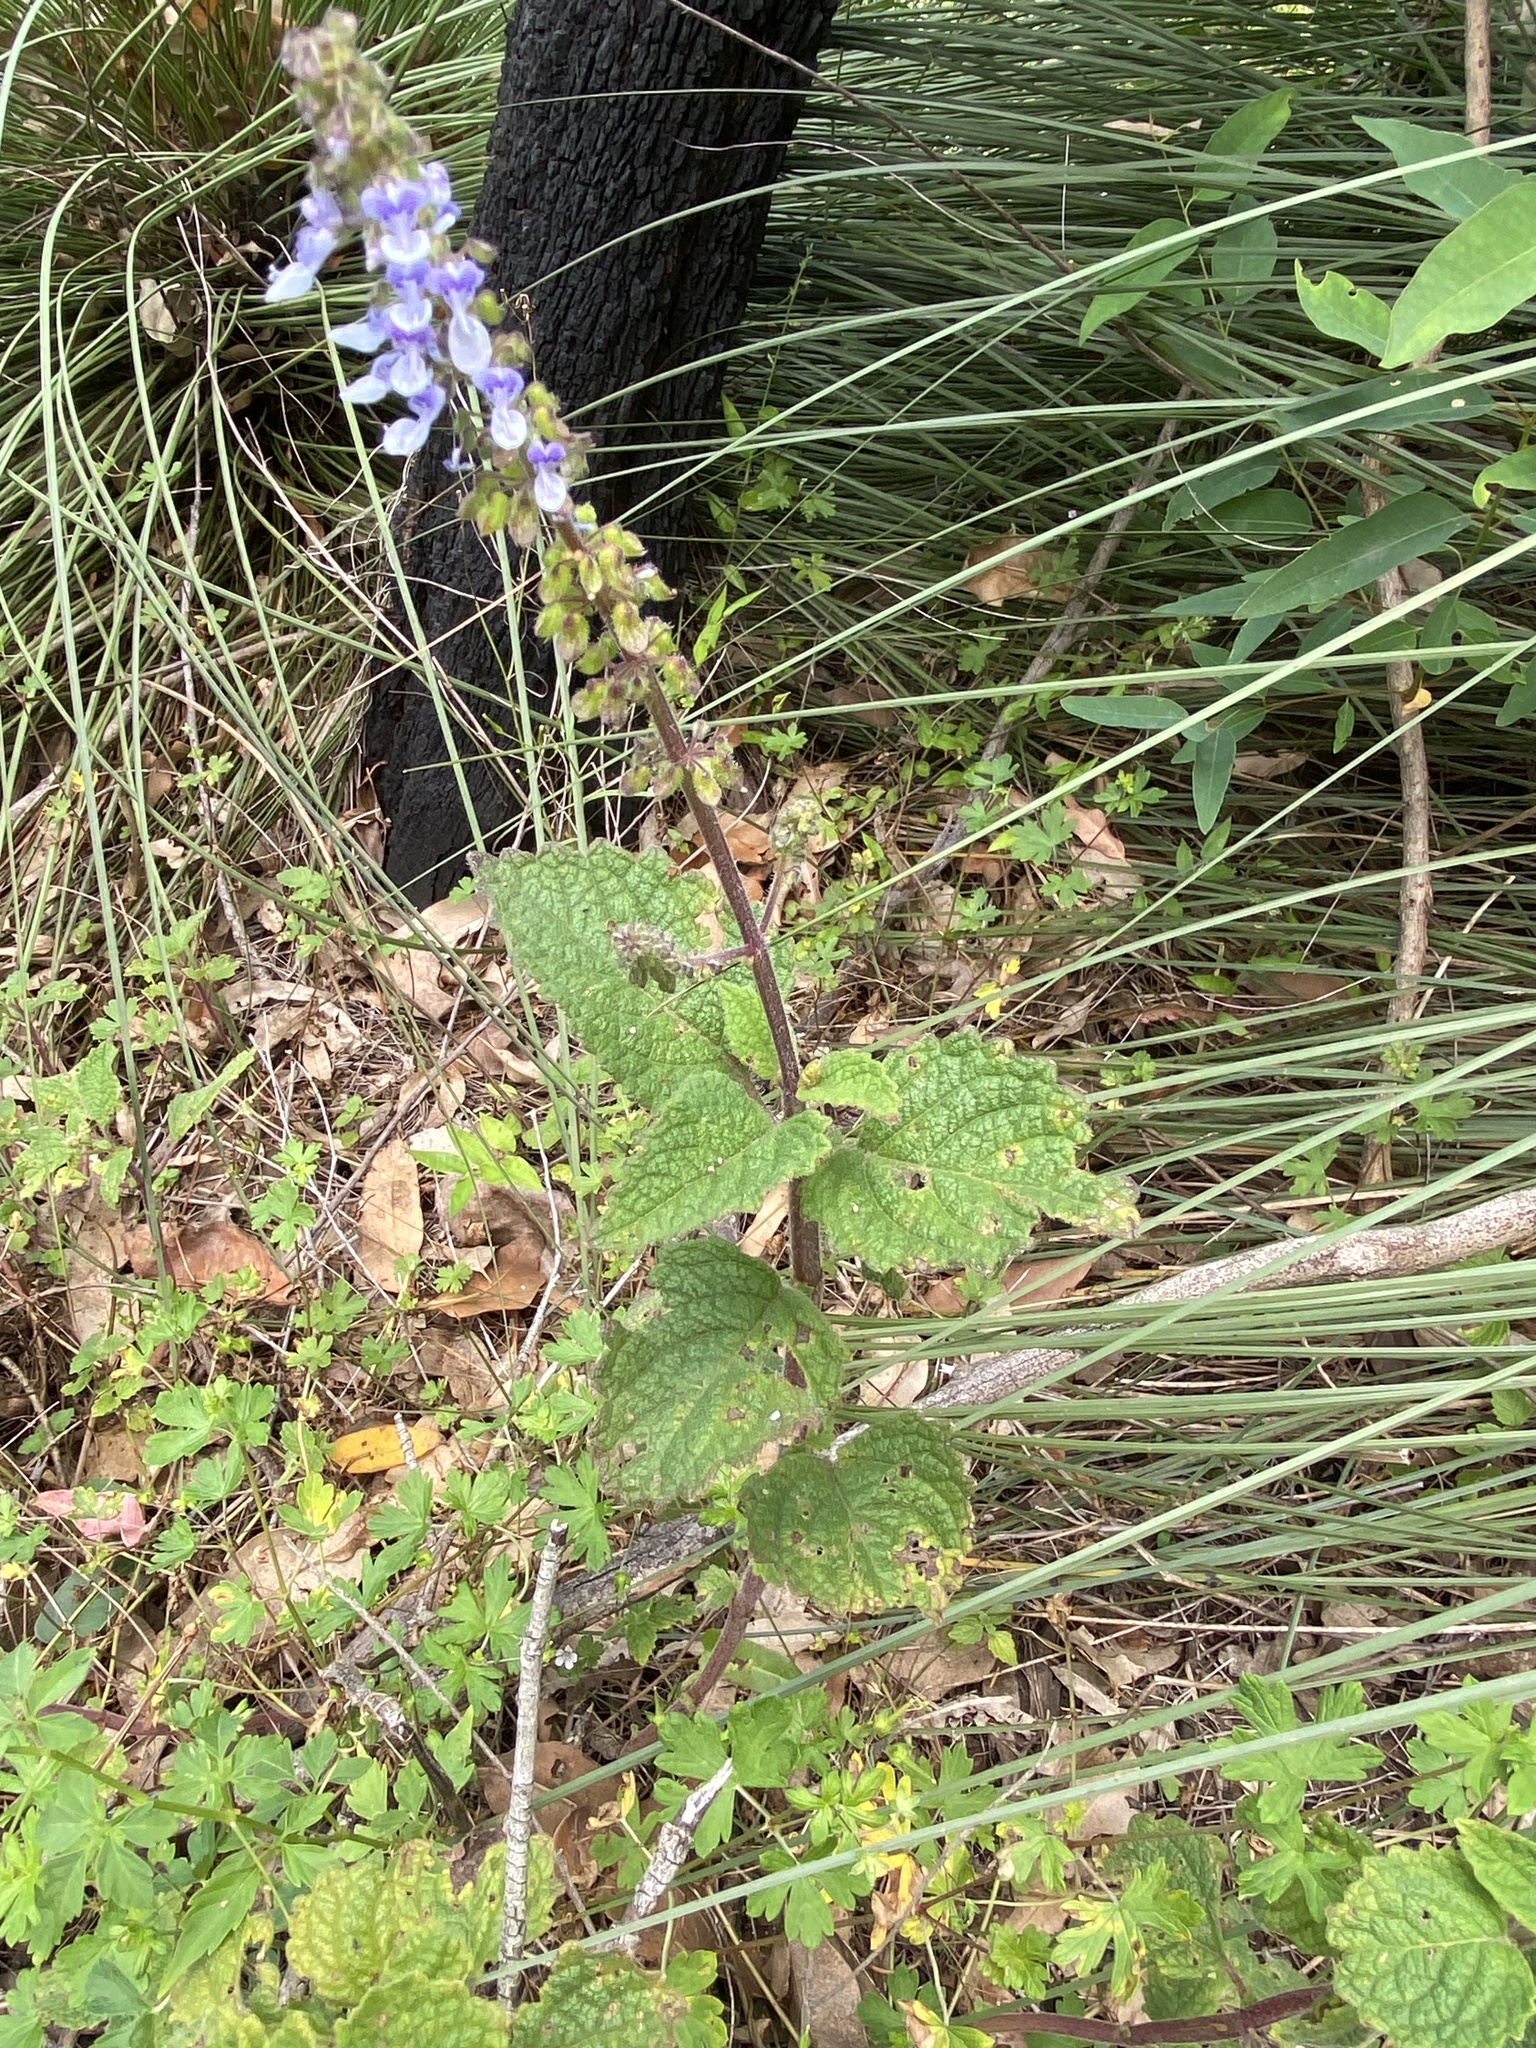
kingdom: Plantae
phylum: Tracheophyta
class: Magnoliopsida
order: Lamiales
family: Lamiaceae
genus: Coleus
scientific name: Coleus australis
